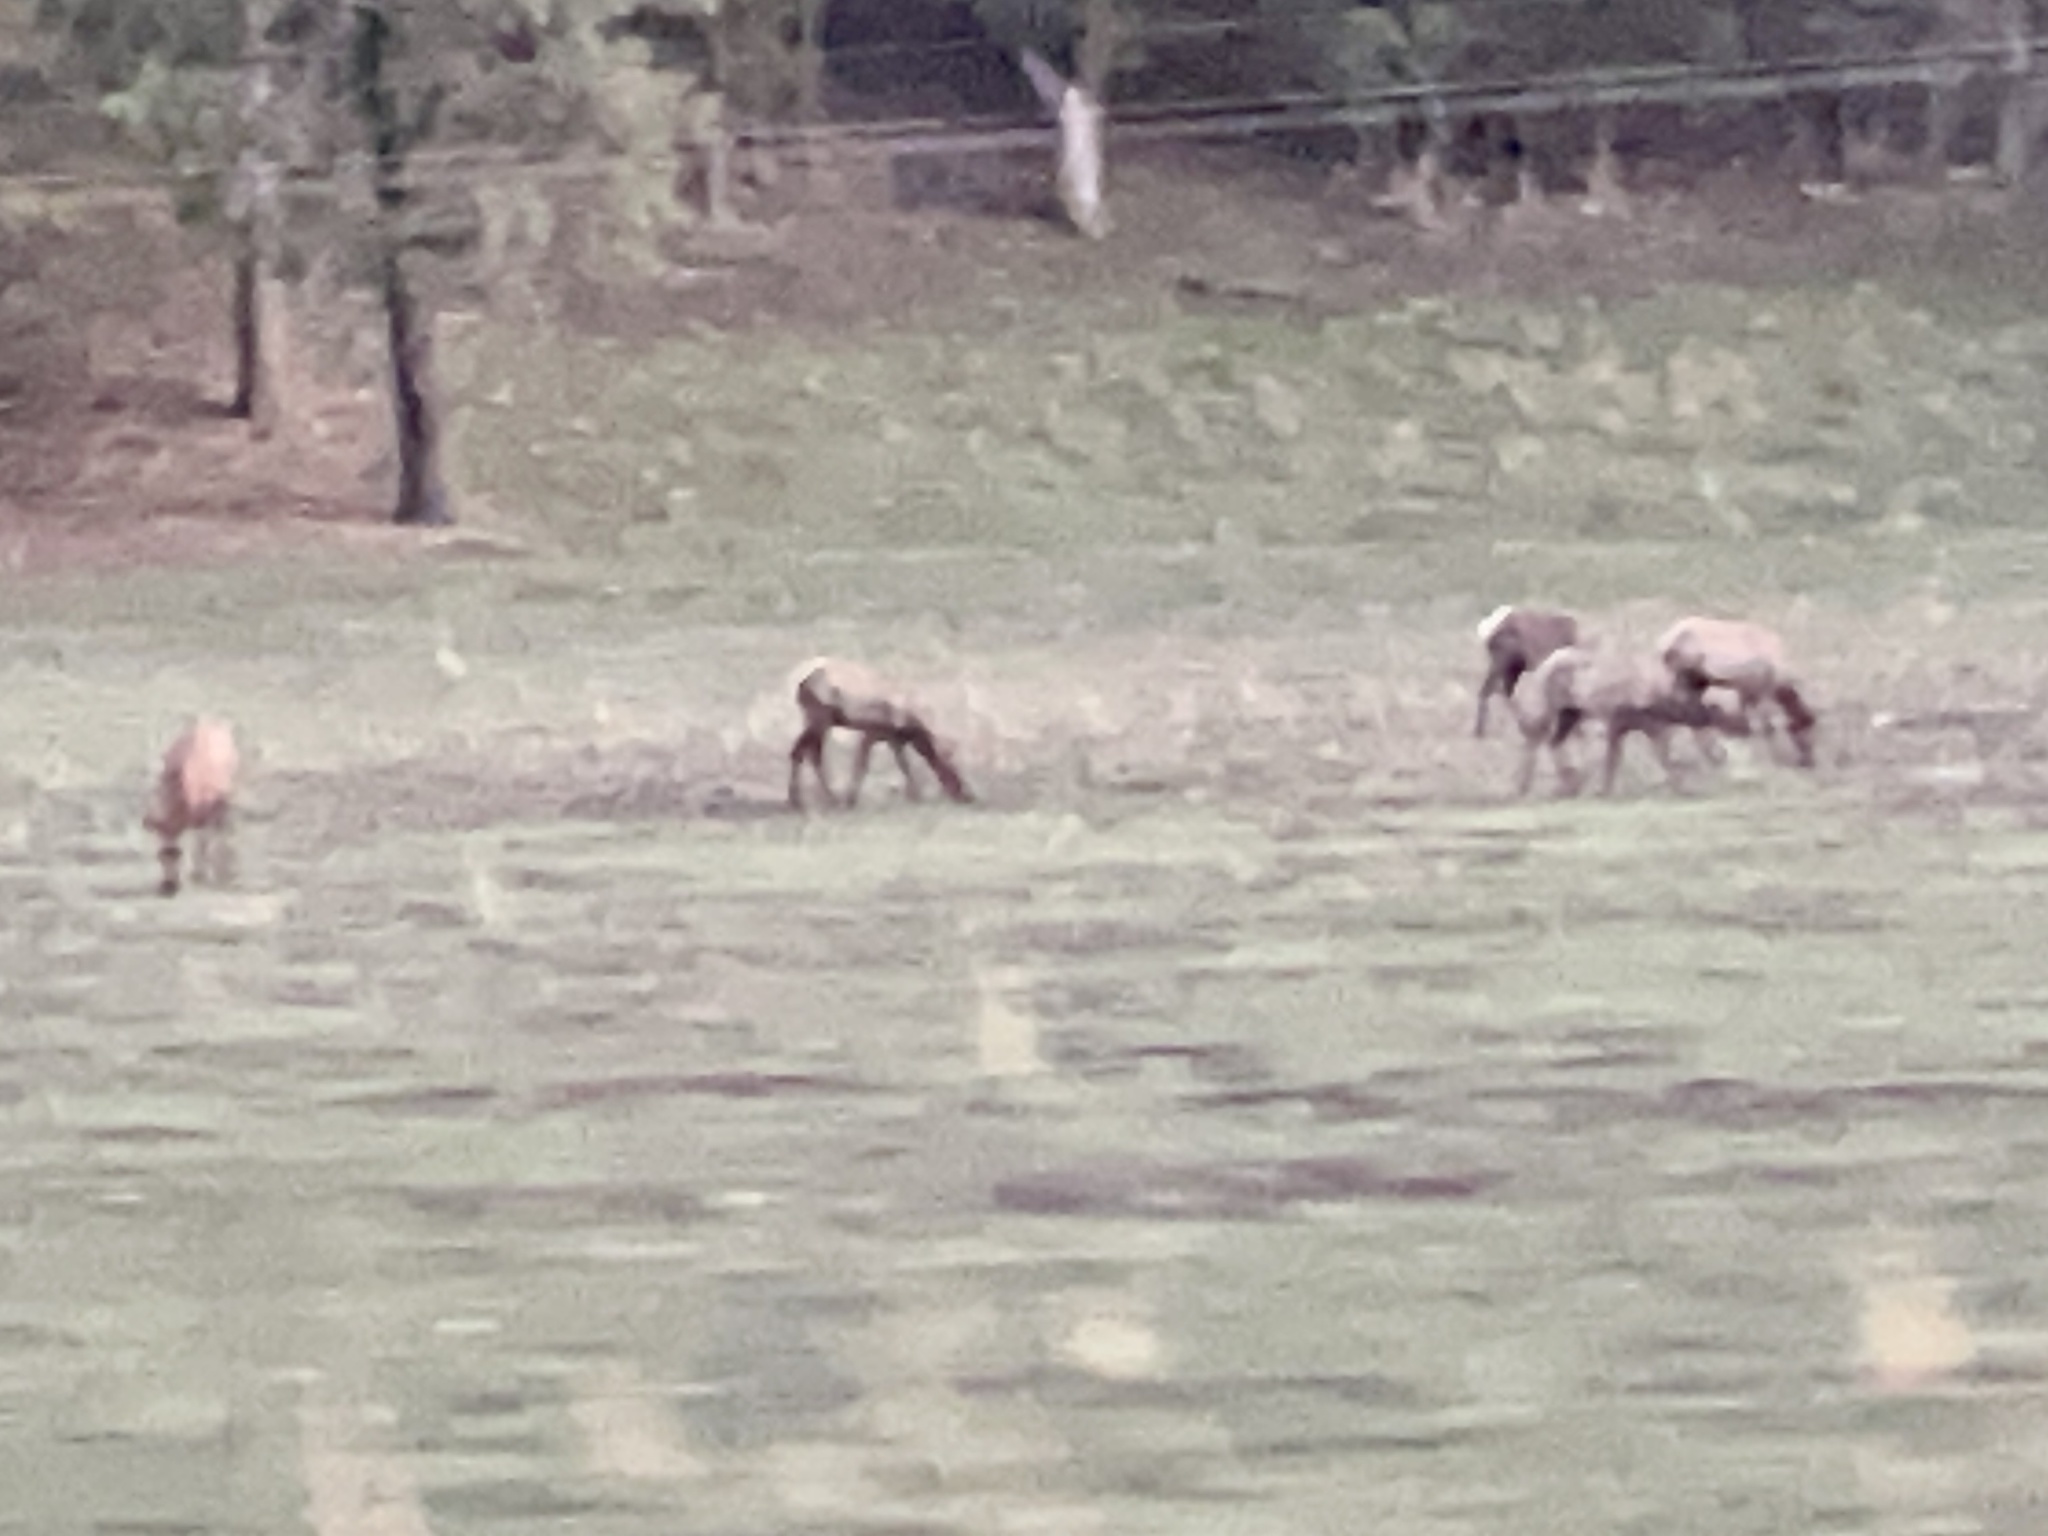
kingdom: Animalia
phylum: Chordata
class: Mammalia
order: Artiodactyla
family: Cervidae
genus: Cervus
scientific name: Cervus elaphus
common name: Red deer
